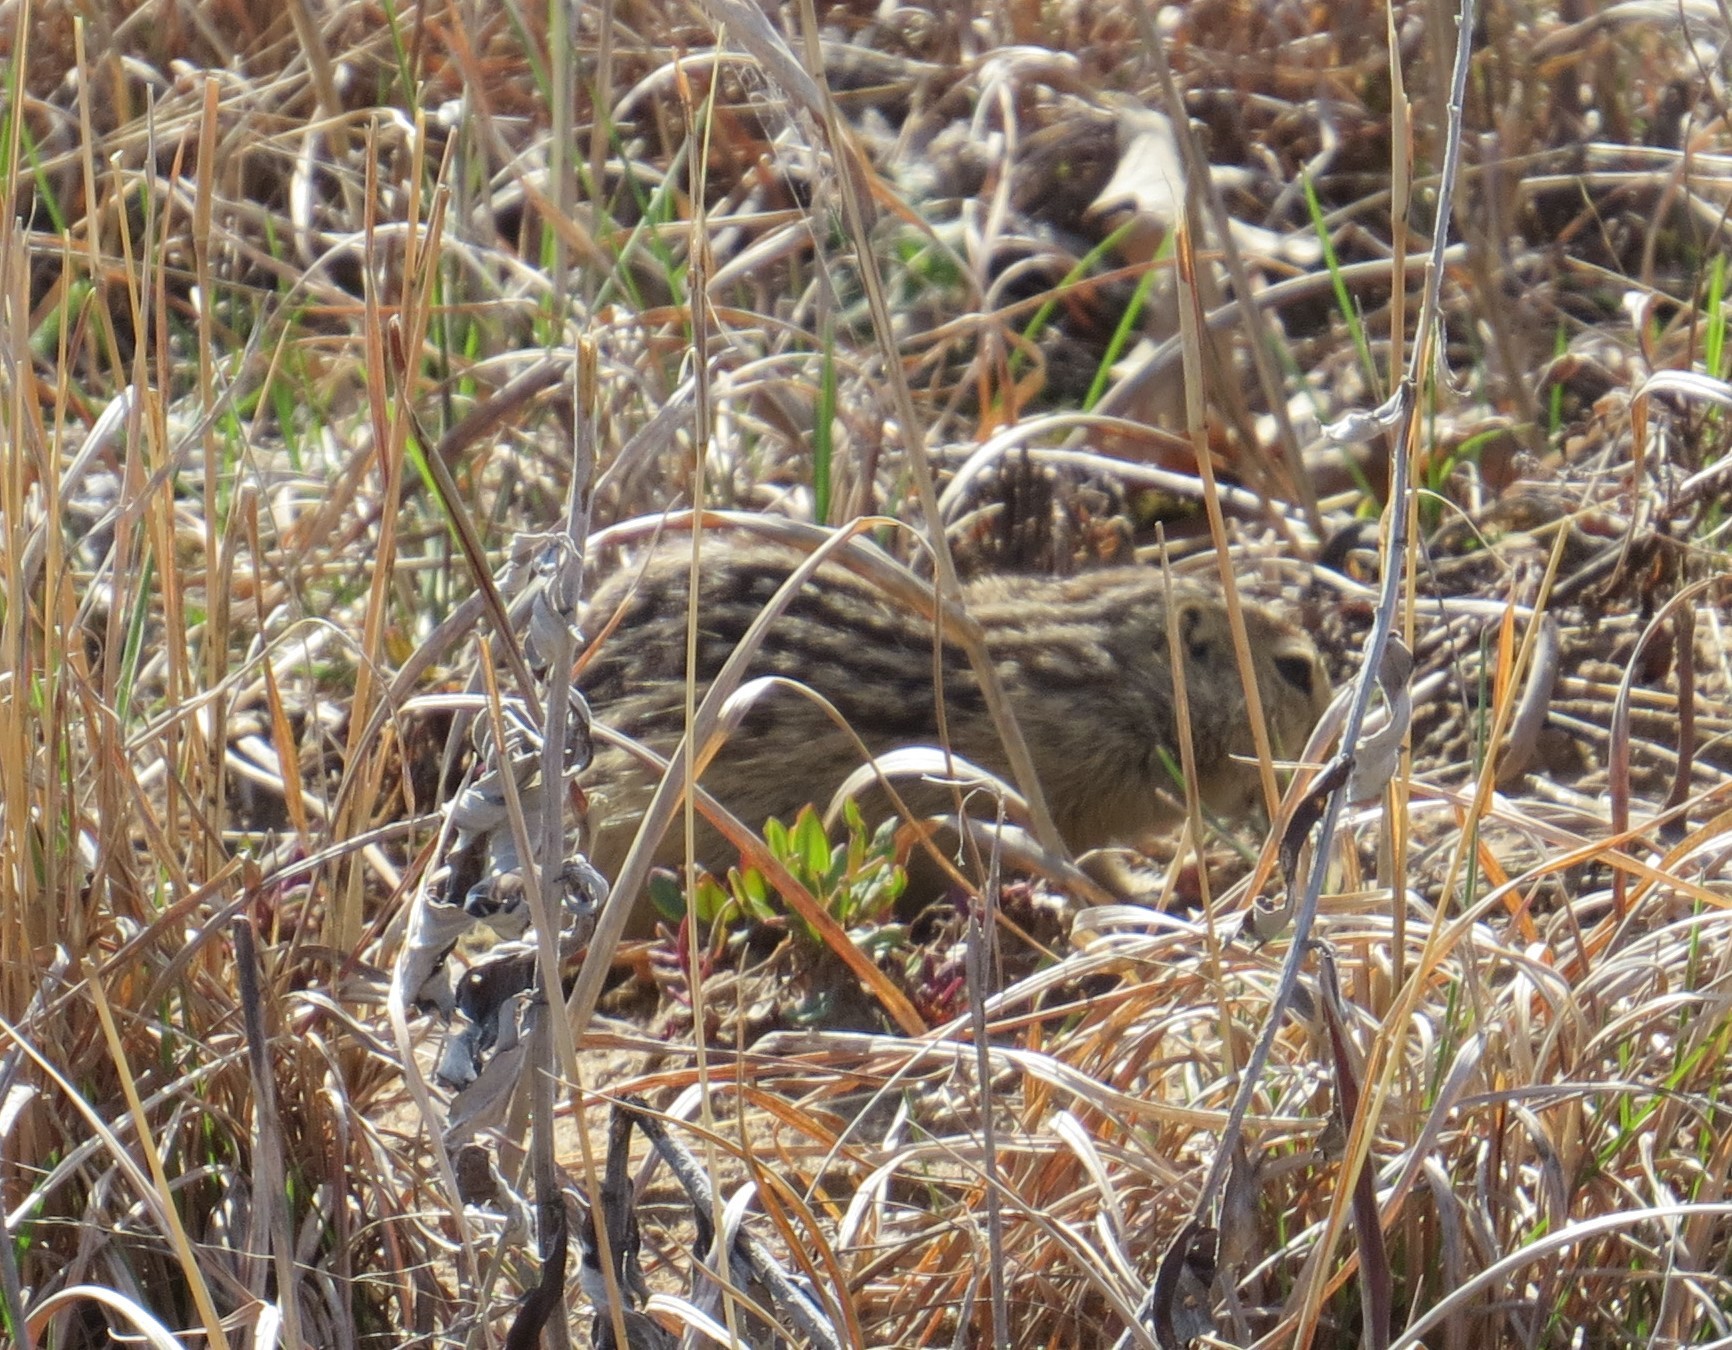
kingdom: Animalia
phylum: Chordata
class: Mammalia
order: Rodentia
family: Sciuridae
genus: Ictidomys
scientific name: Ictidomys tridecemlineatus
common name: Thirteen-lined ground squirrel
